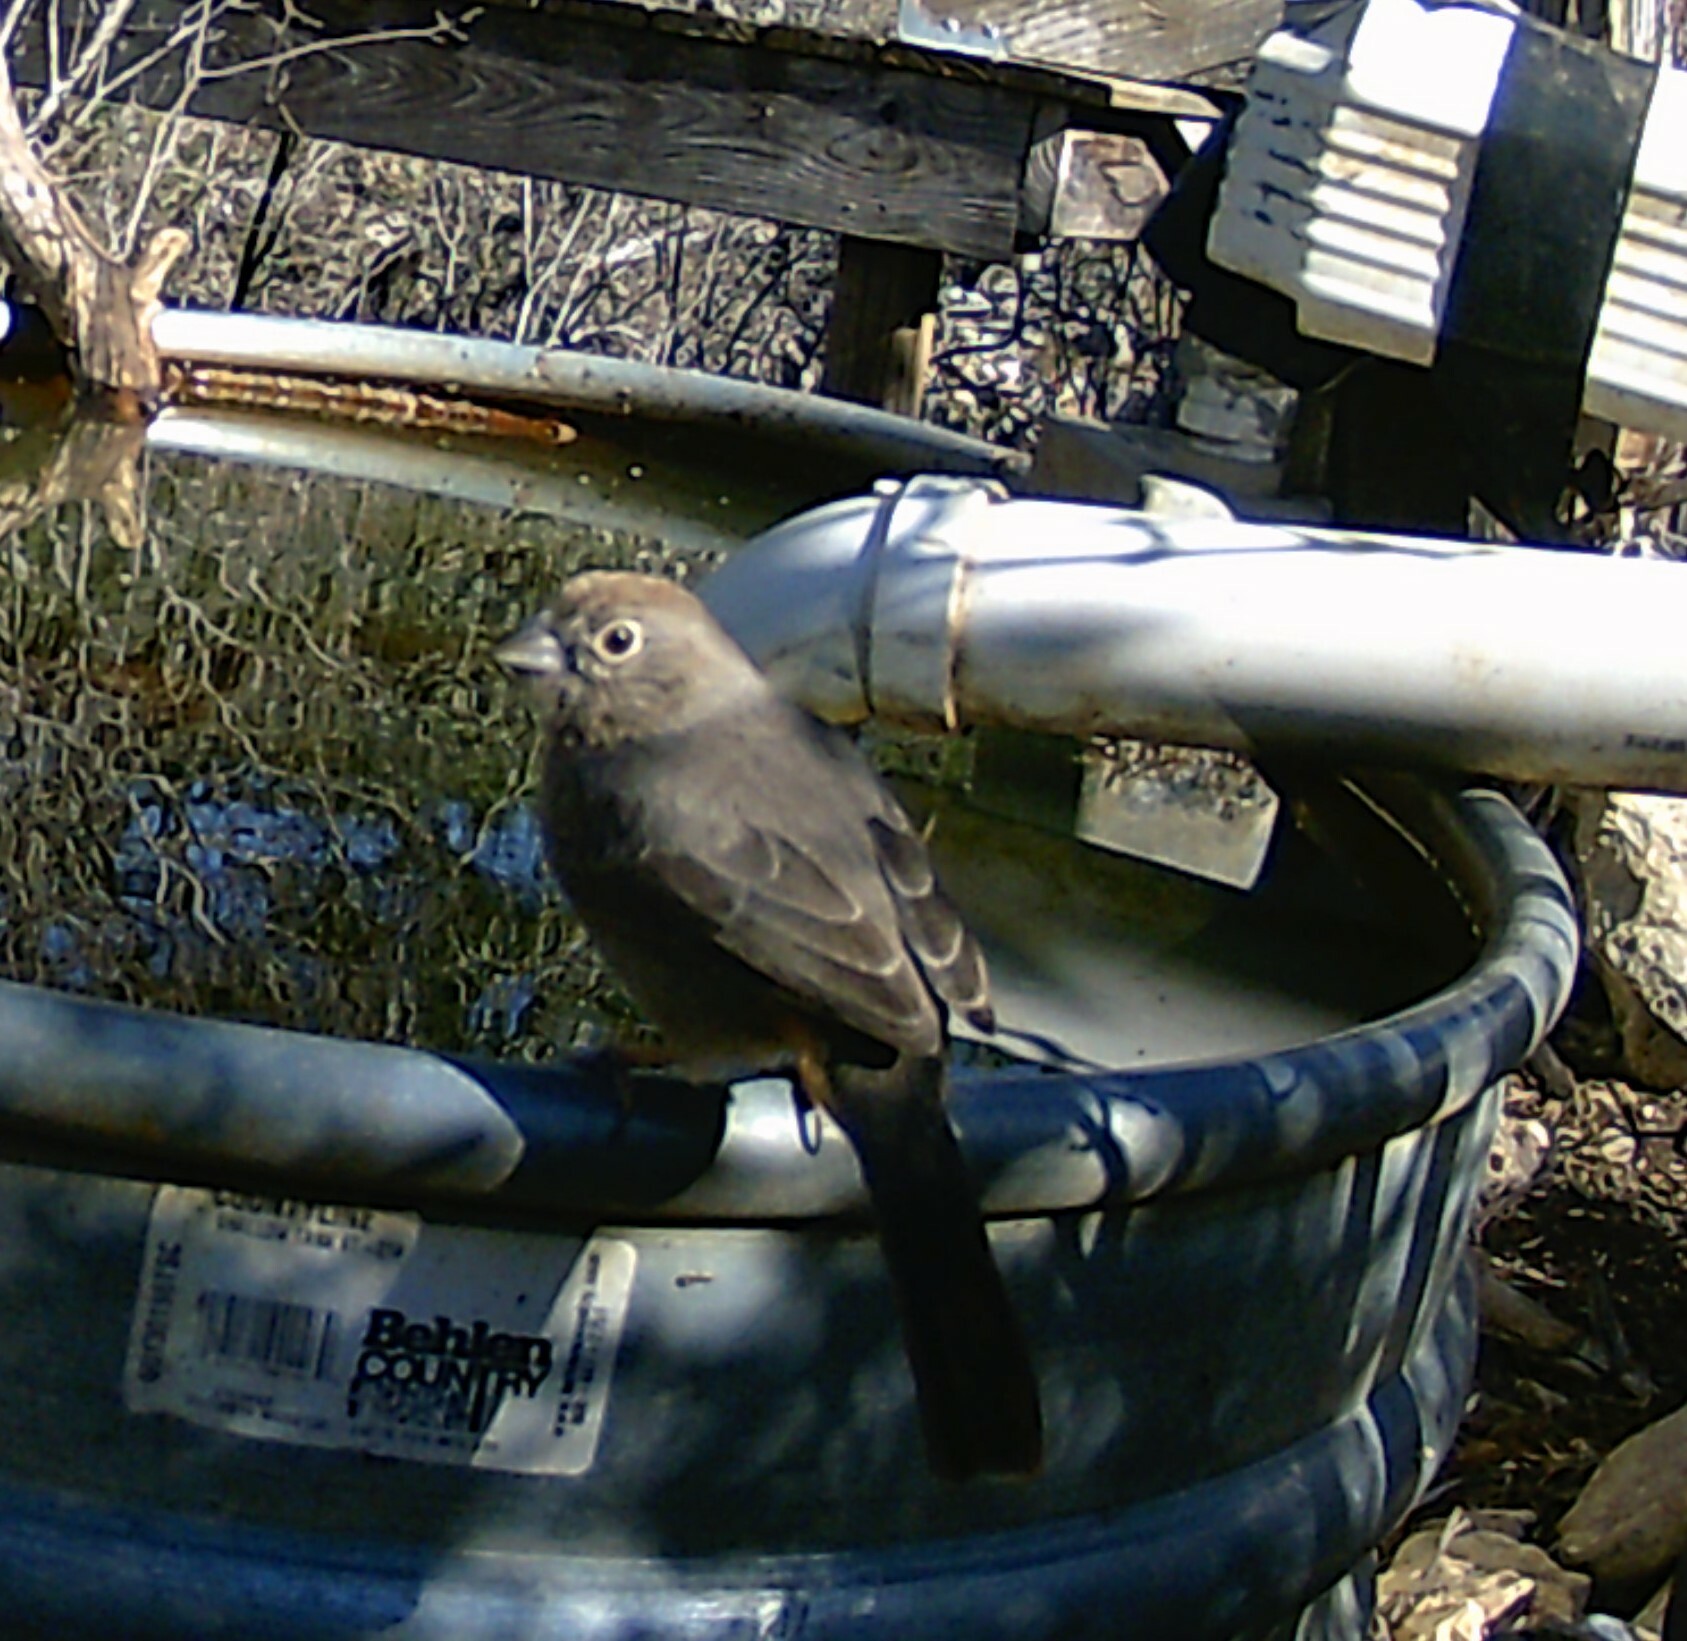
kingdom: Animalia
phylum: Chordata
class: Aves
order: Passeriformes
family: Passerellidae
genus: Melozone
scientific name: Melozone fusca
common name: Canyon towhee
